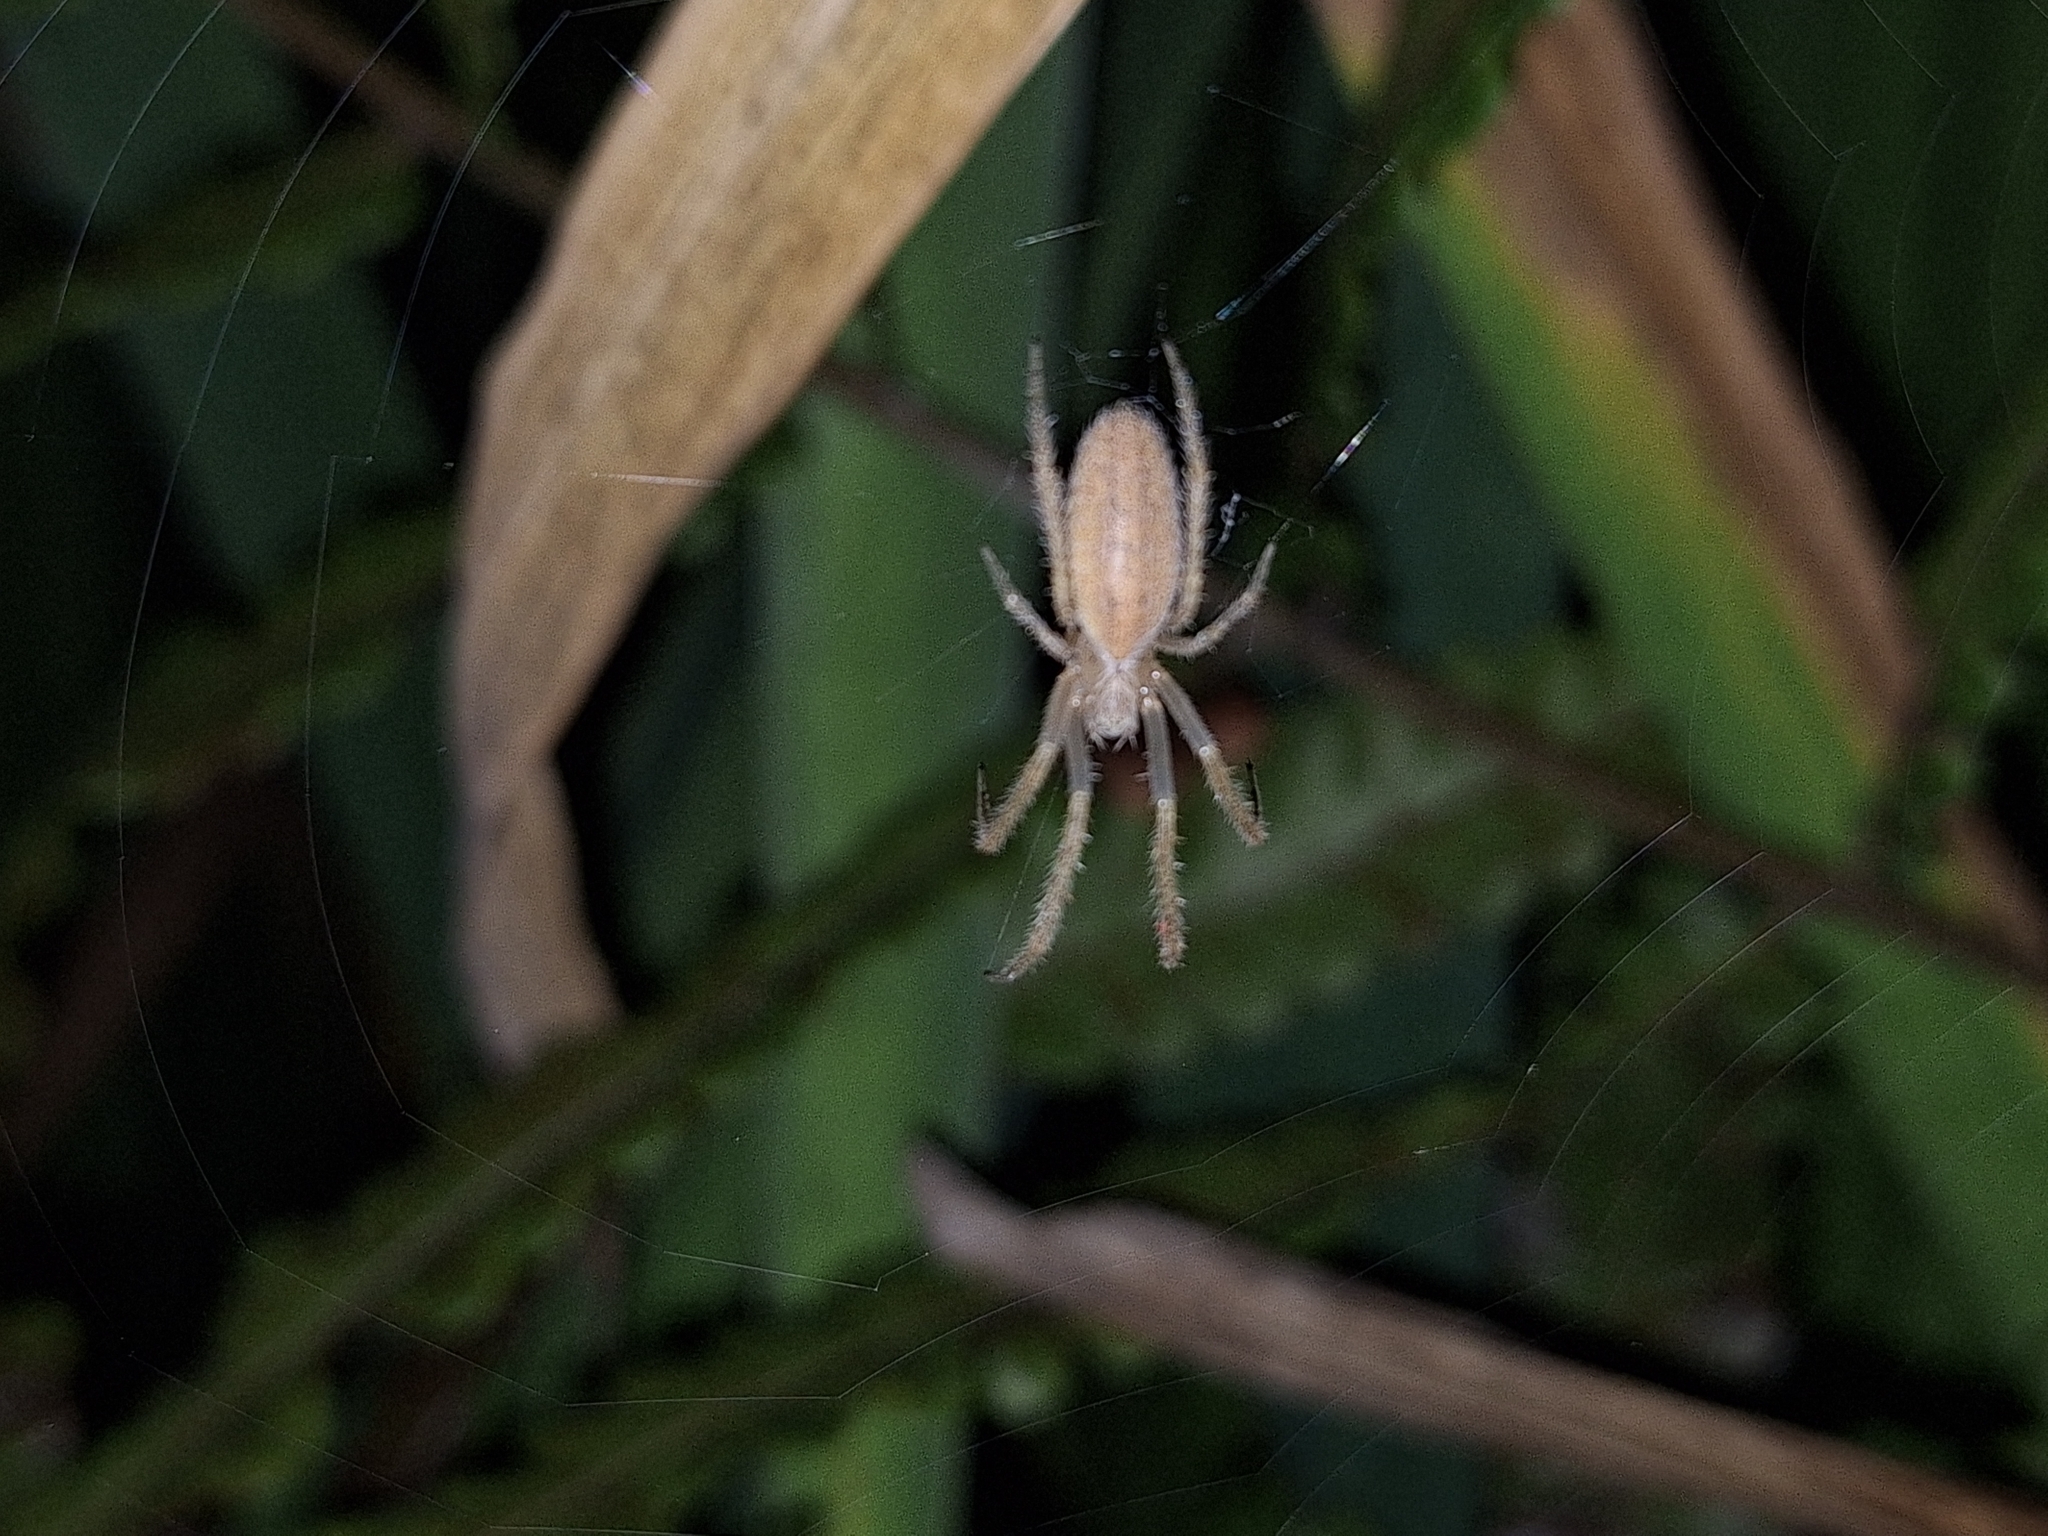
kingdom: Animalia
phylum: Arthropoda
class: Arachnida
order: Araneae
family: Araneidae
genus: Larinia
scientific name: Larinia t-notata
